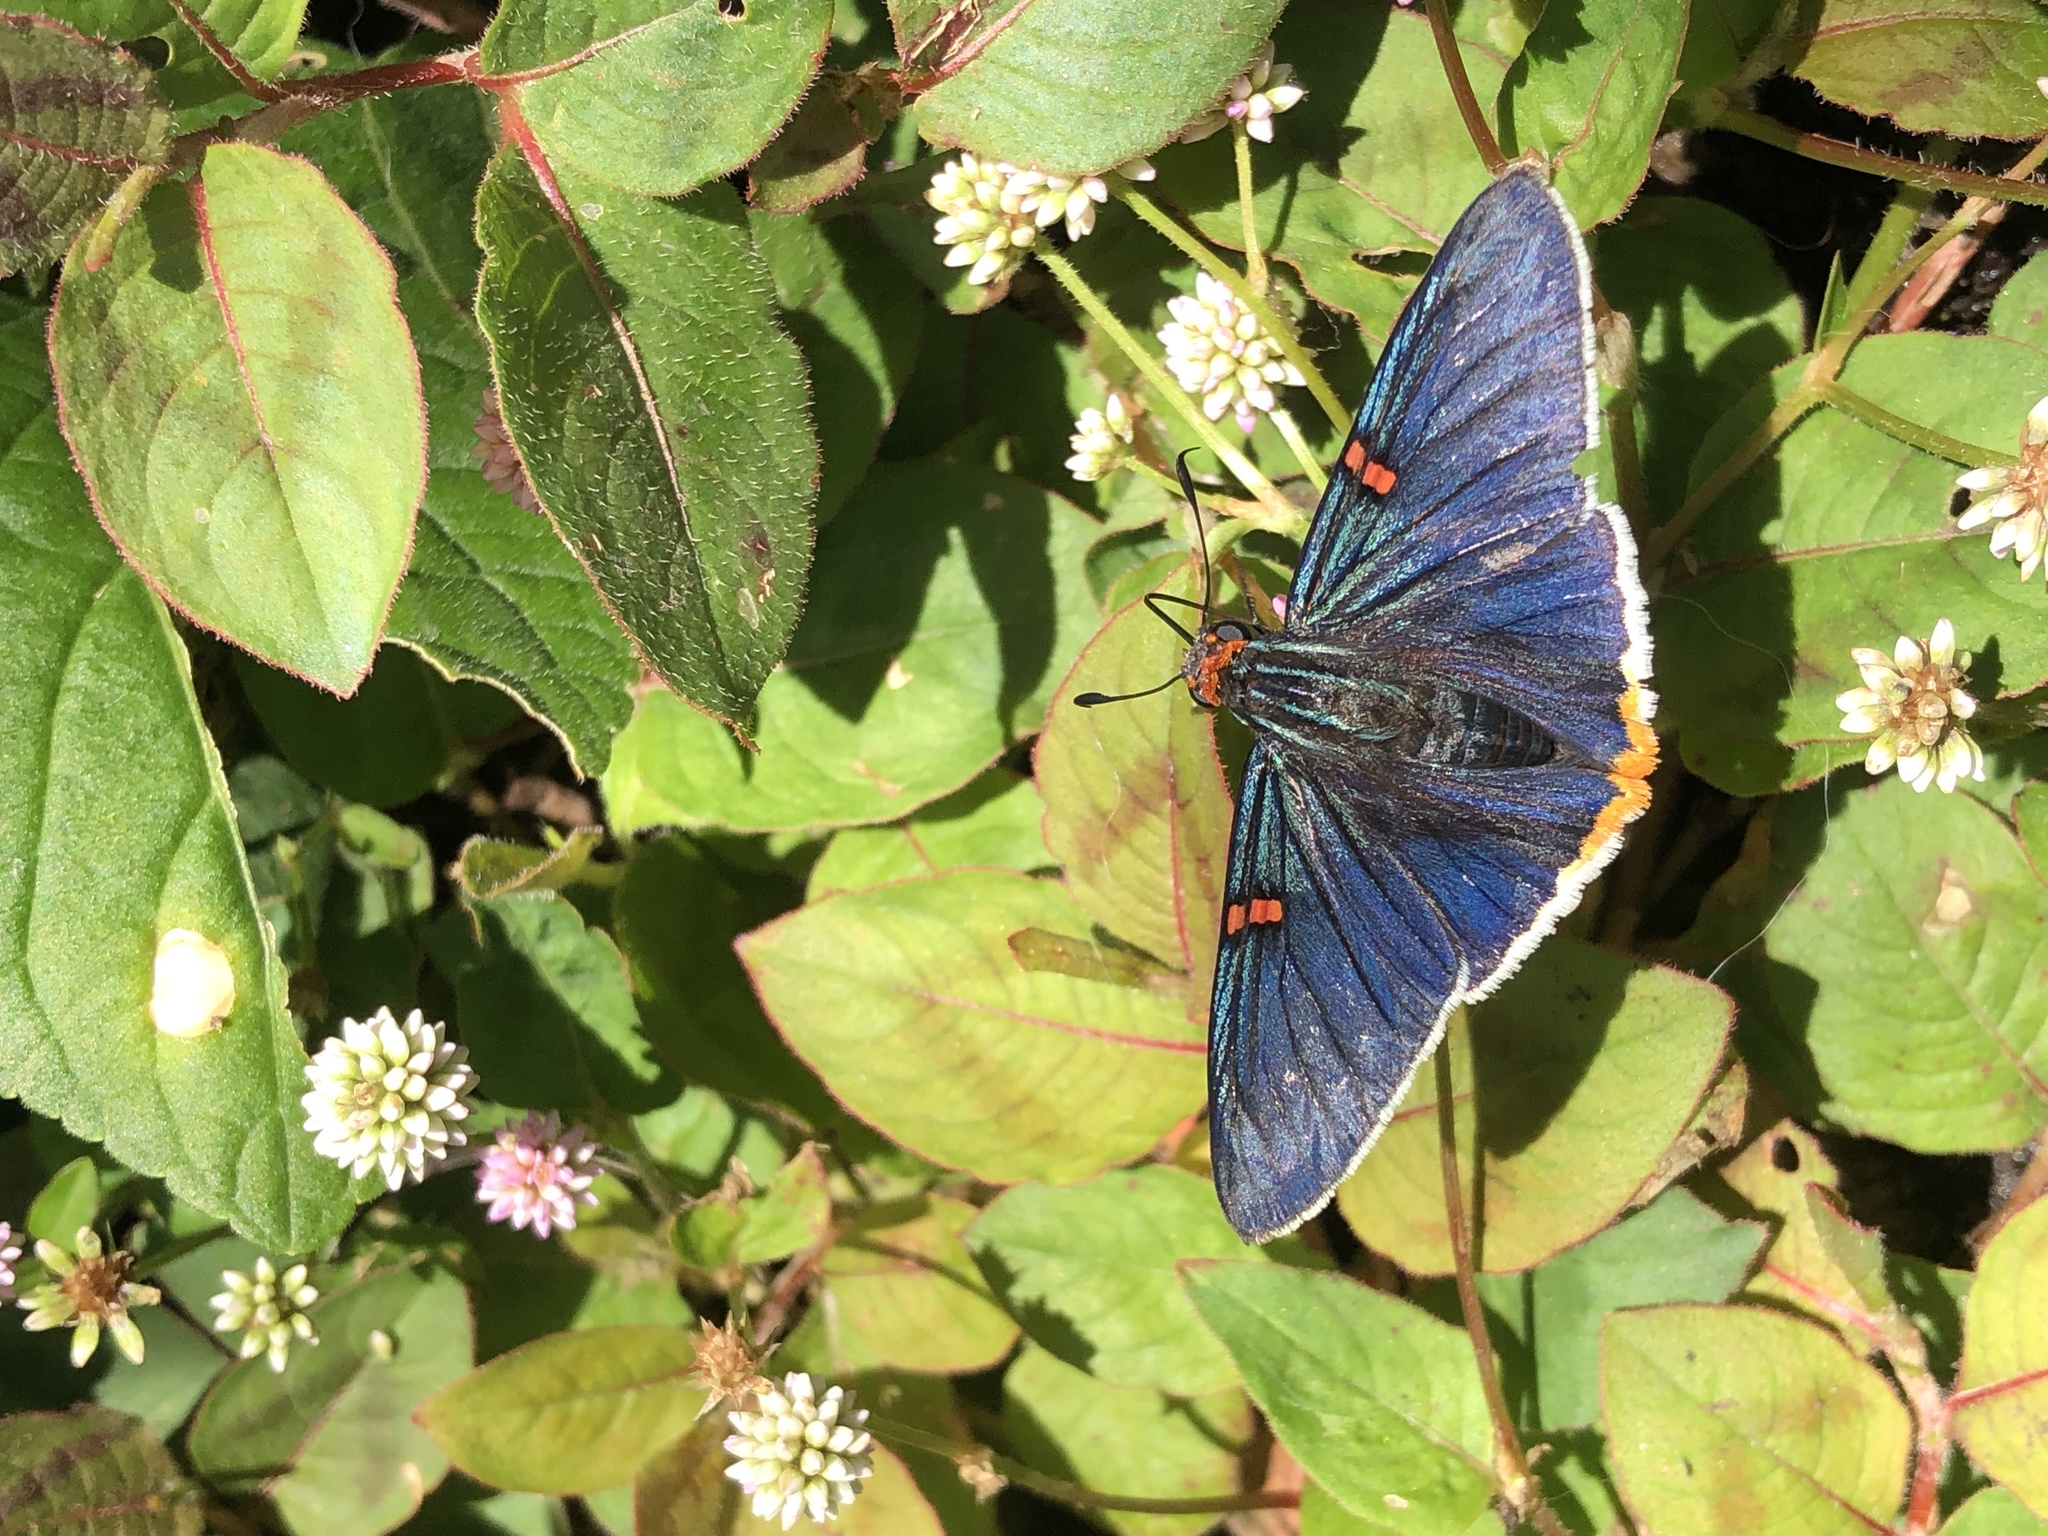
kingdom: Animalia
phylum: Arthropoda
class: Insecta
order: Lepidoptera
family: Hesperiidae
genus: Phocides
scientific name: Phocides polybius
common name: Guava skipper
